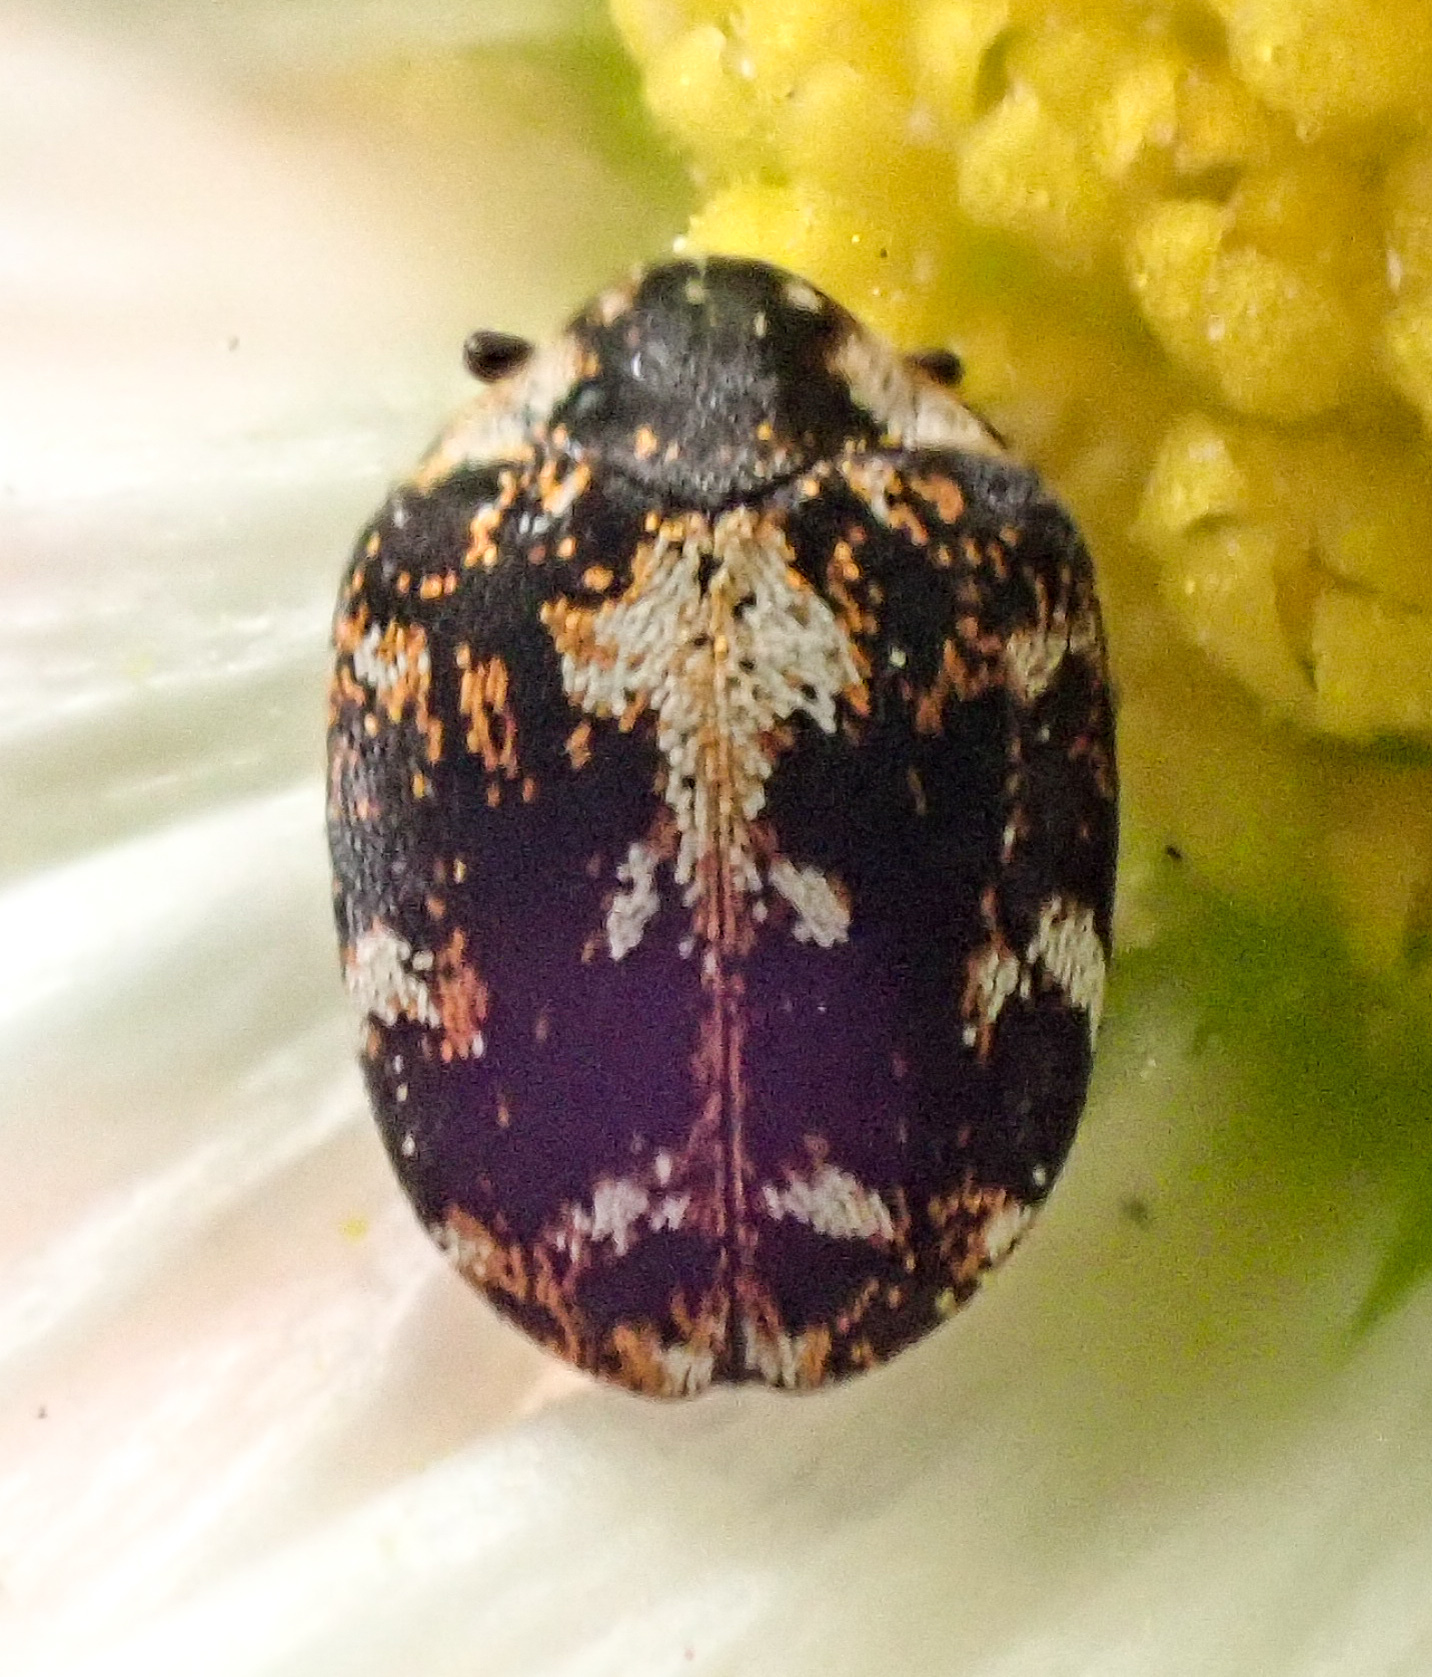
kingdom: Animalia
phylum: Arthropoda
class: Insecta
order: Coleoptera
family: Dermestidae
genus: Anthrenus
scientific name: Anthrenus lepidus
